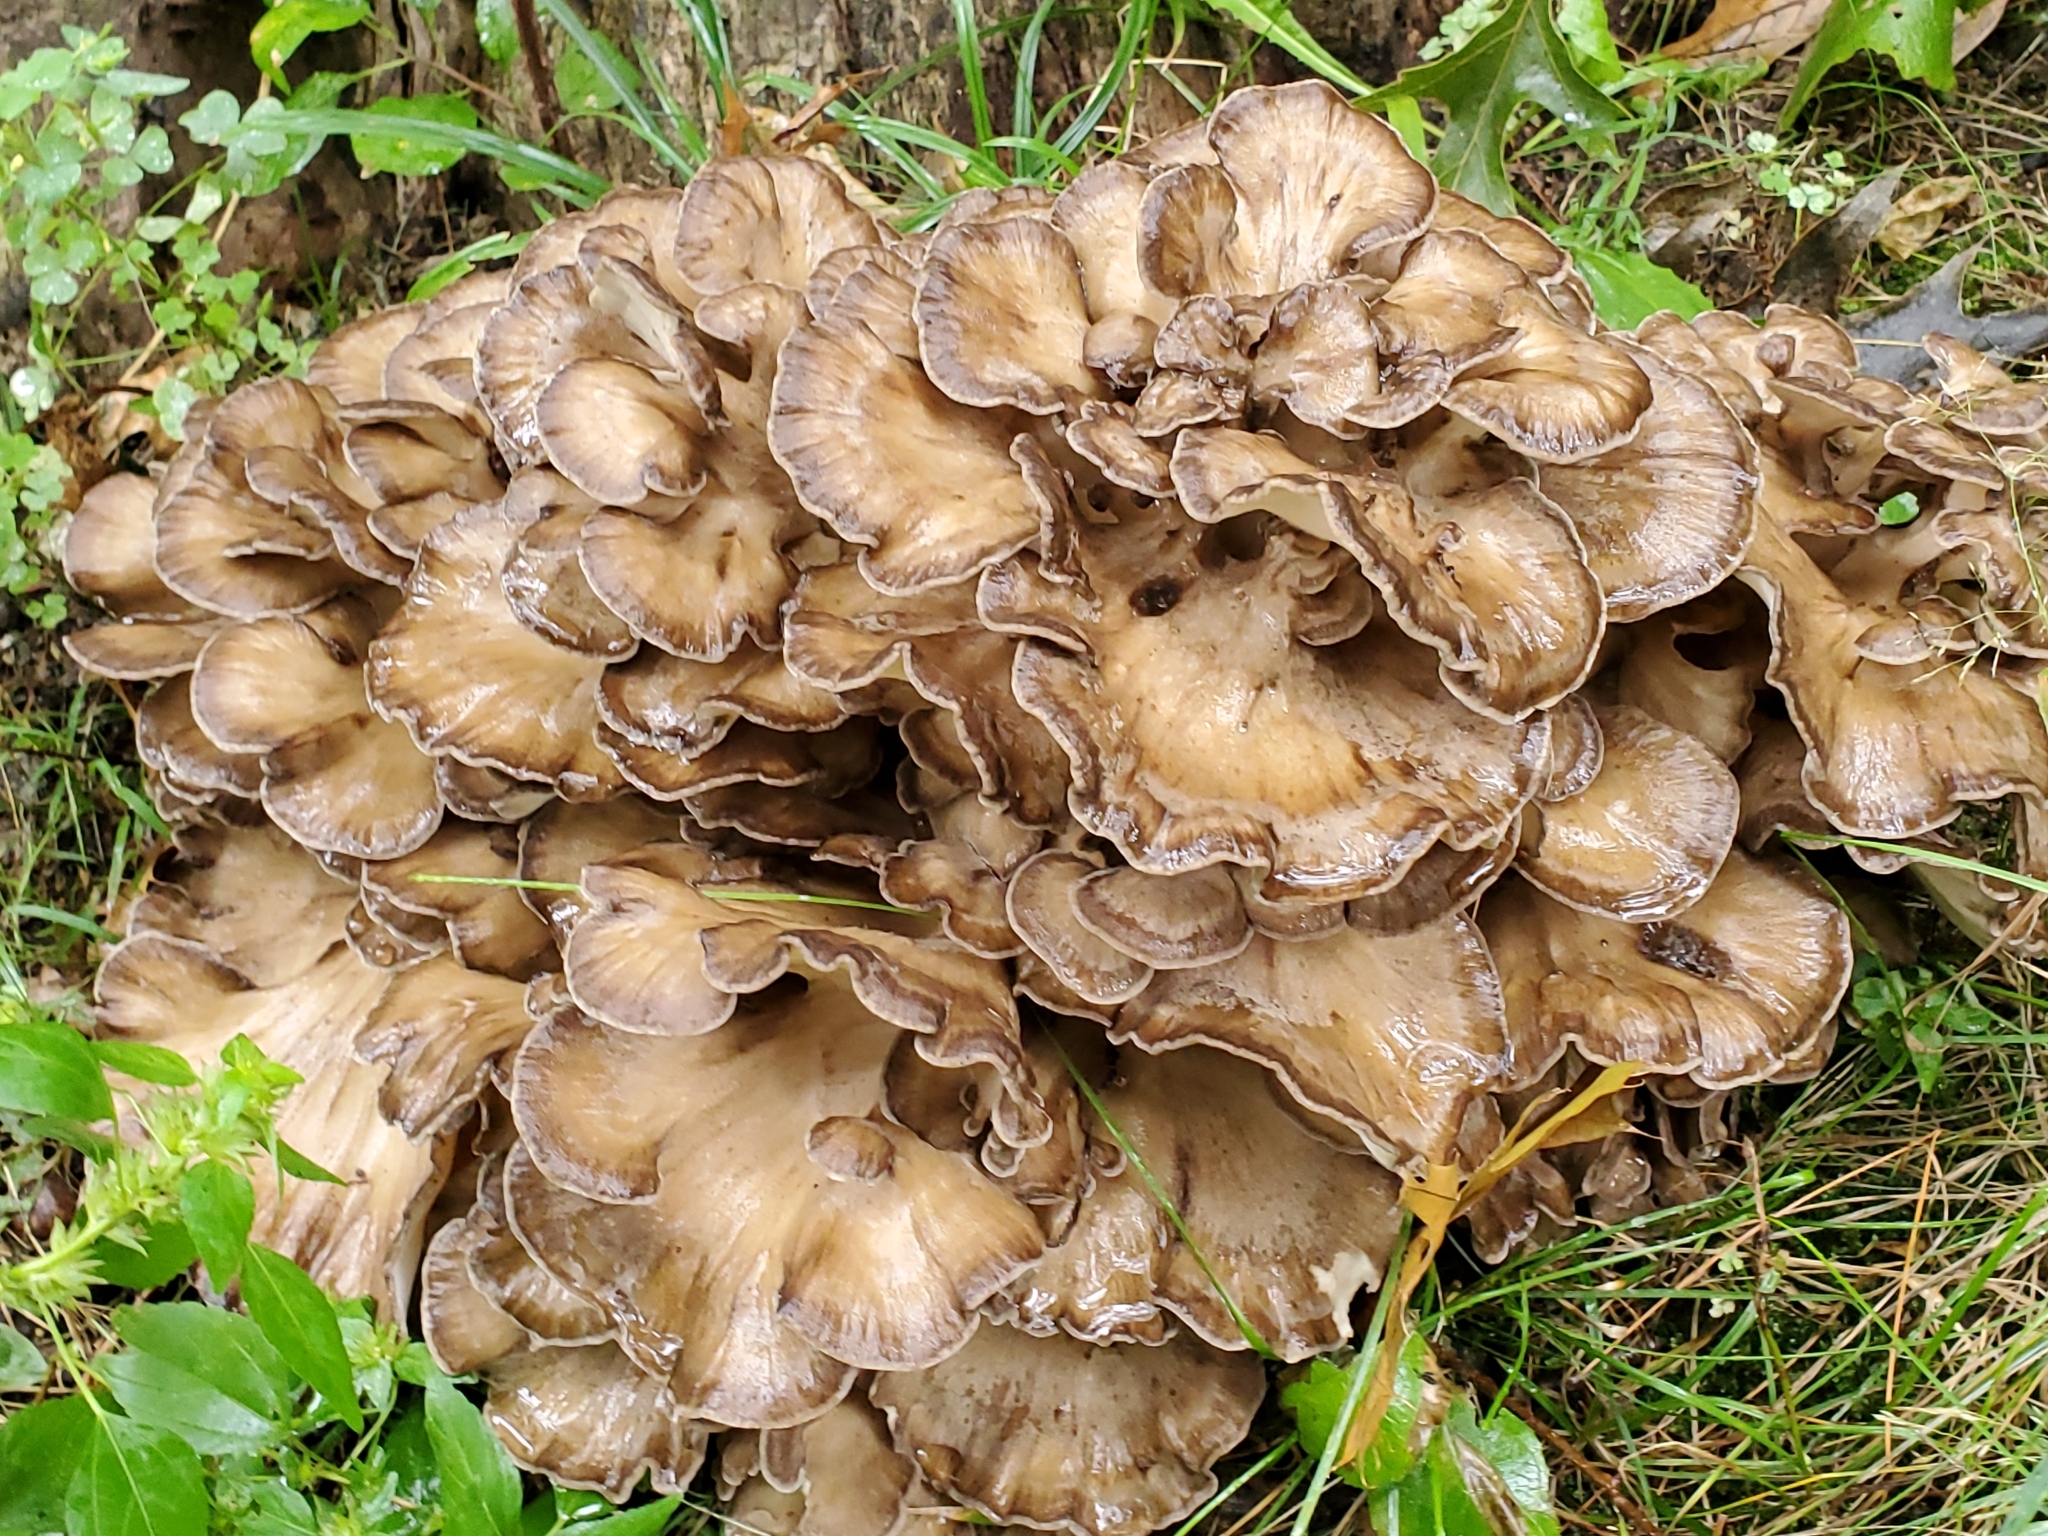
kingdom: Fungi
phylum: Basidiomycota
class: Agaricomycetes
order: Polyporales
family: Grifolaceae
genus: Grifola
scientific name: Grifola frondosa
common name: Hen of the woods
